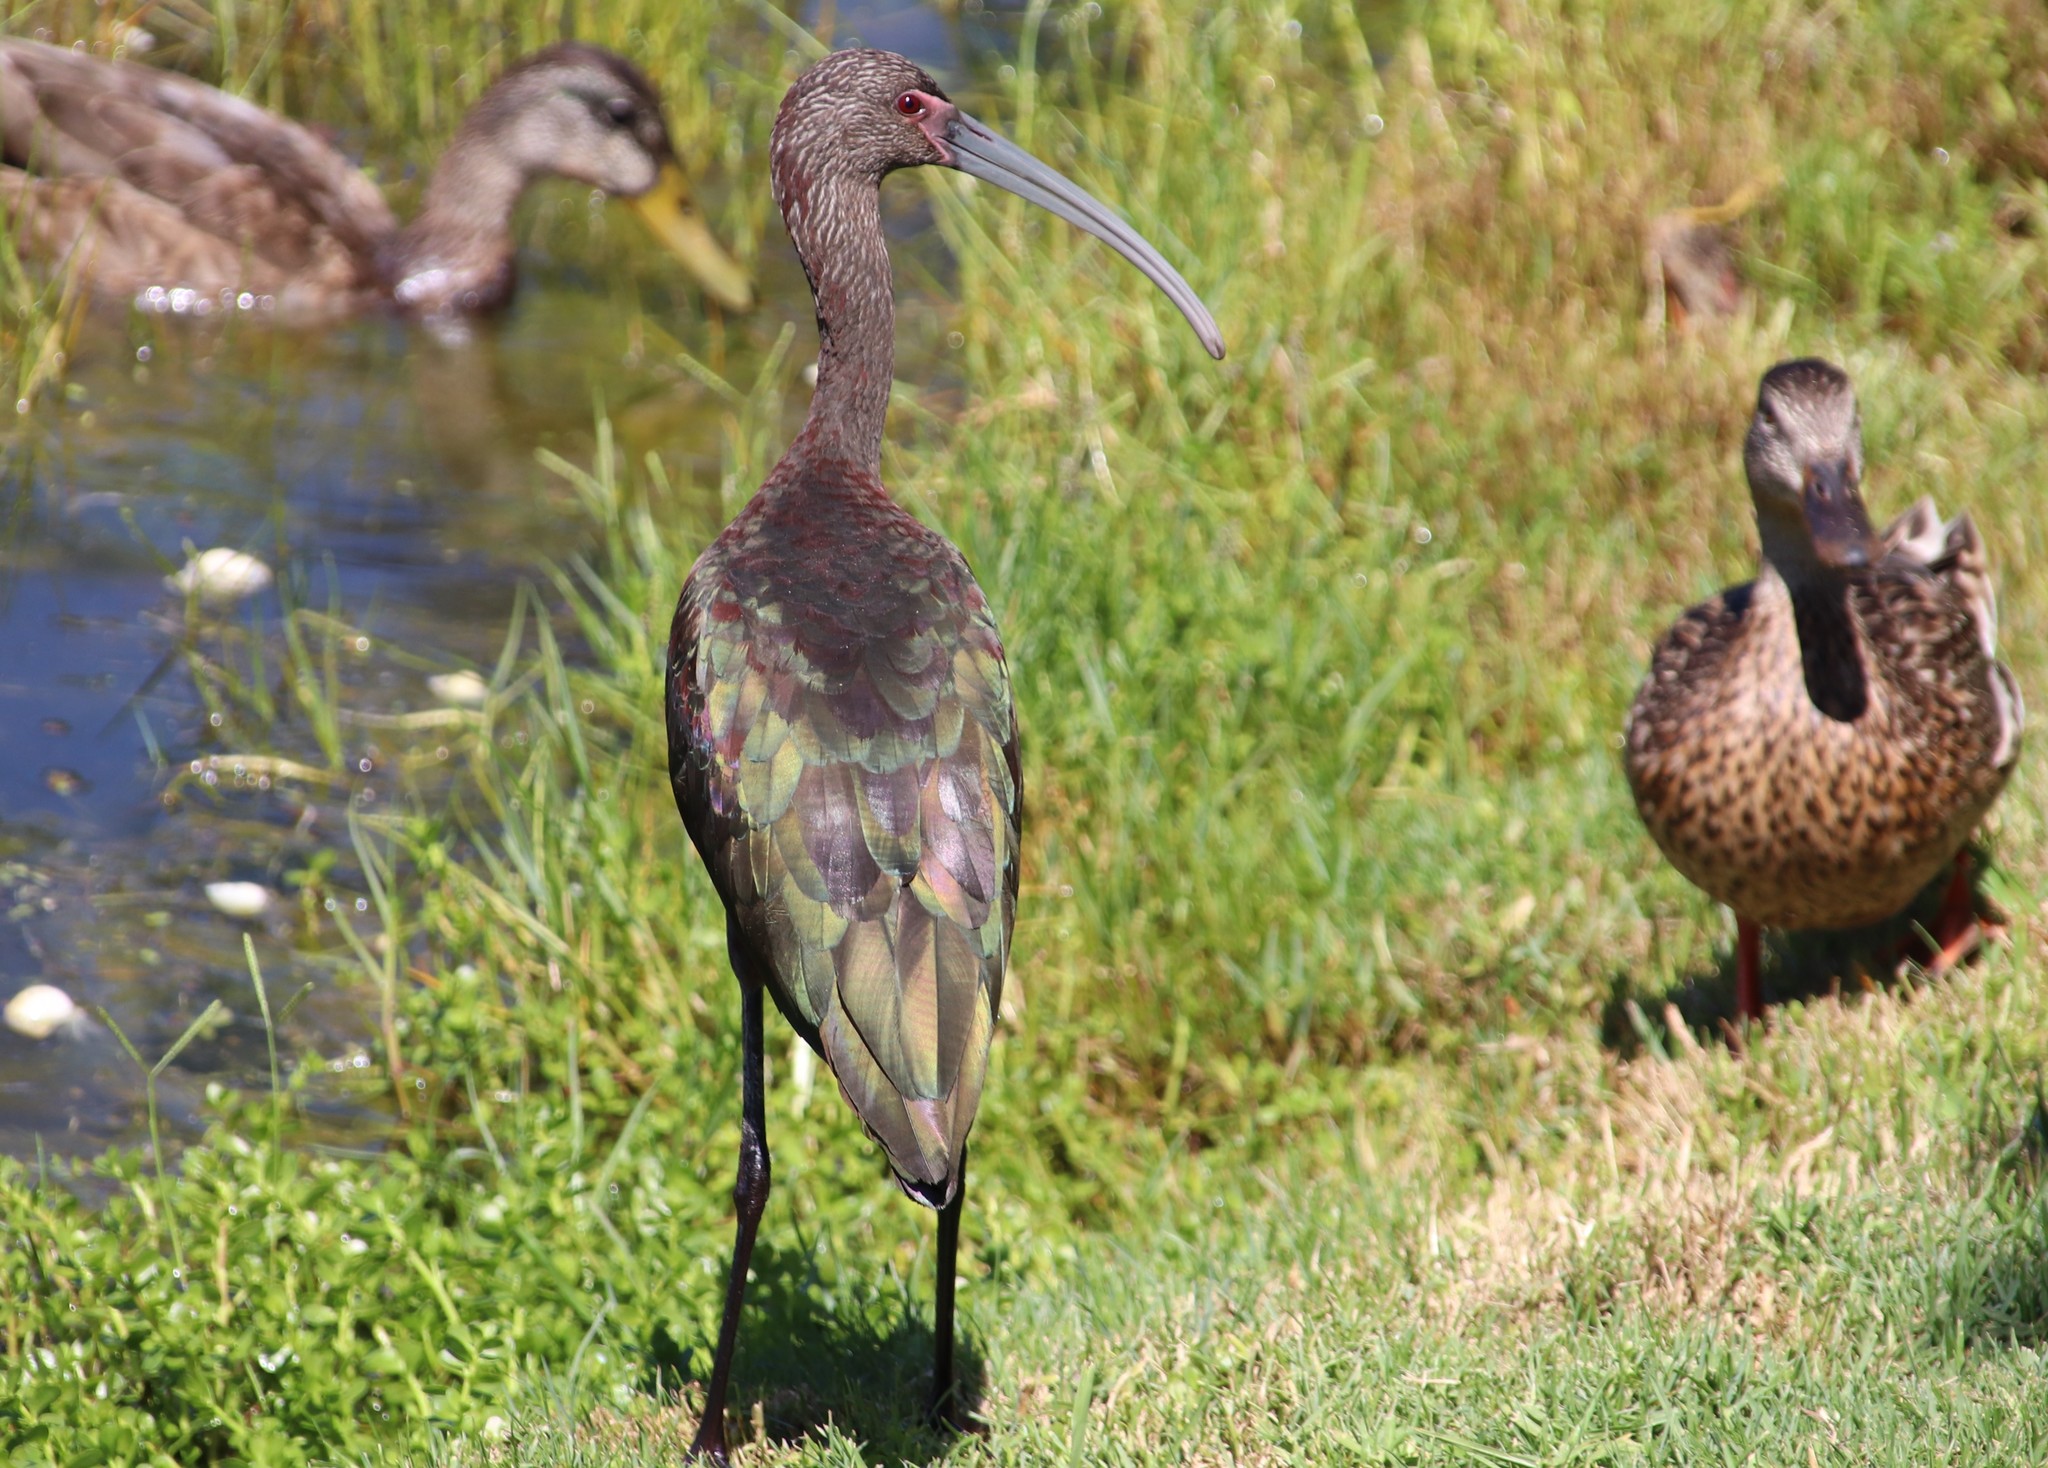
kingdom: Animalia
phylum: Chordata
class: Aves
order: Pelecaniformes
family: Threskiornithidae
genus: Plegadis
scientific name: Plegadis chihi
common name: White-faced ibis
